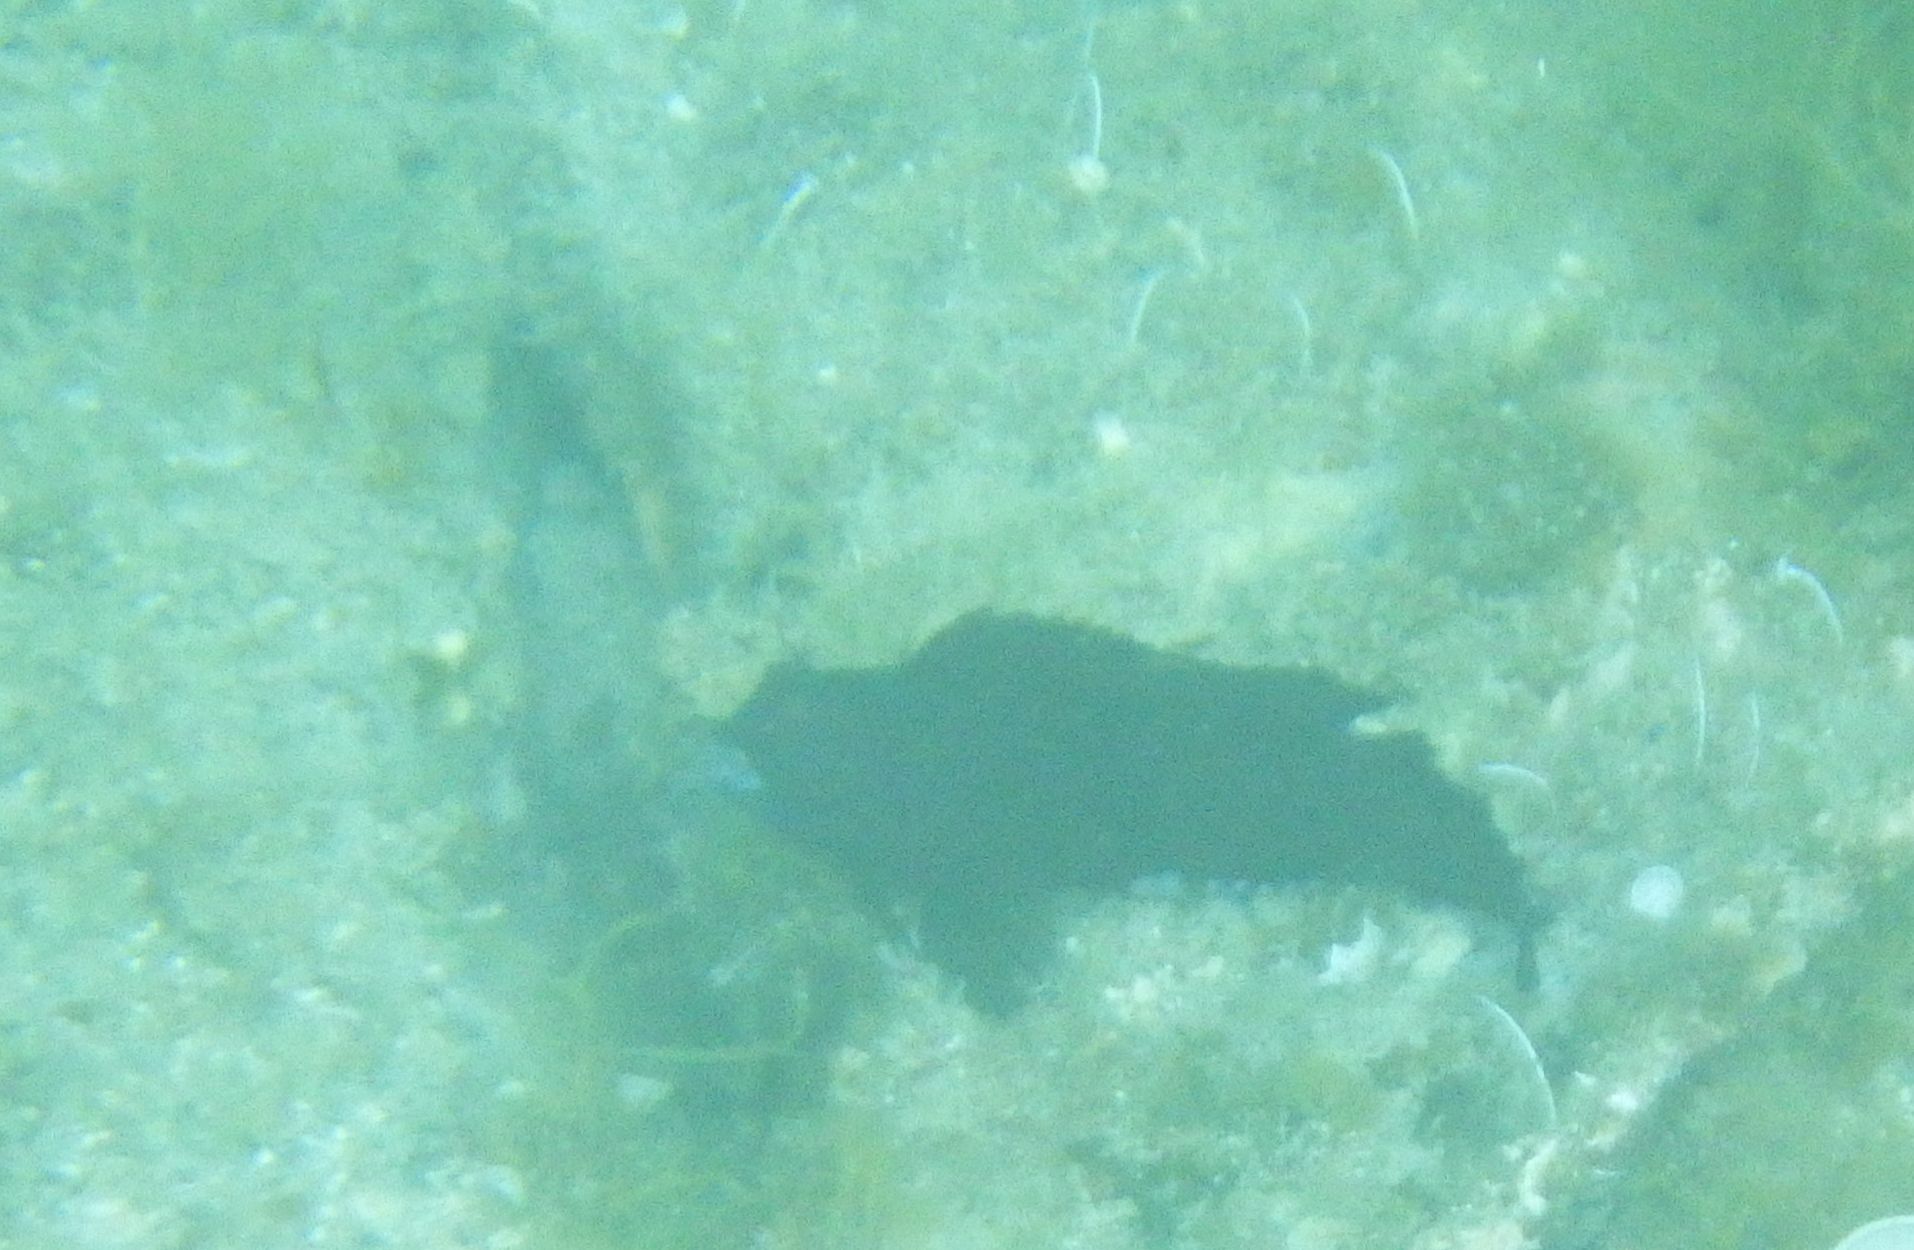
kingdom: Animalia
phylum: Chordata
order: Perciformes
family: Blenniidae
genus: Parablennius
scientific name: Parablennius pilicornis
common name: Ringneck blenny
